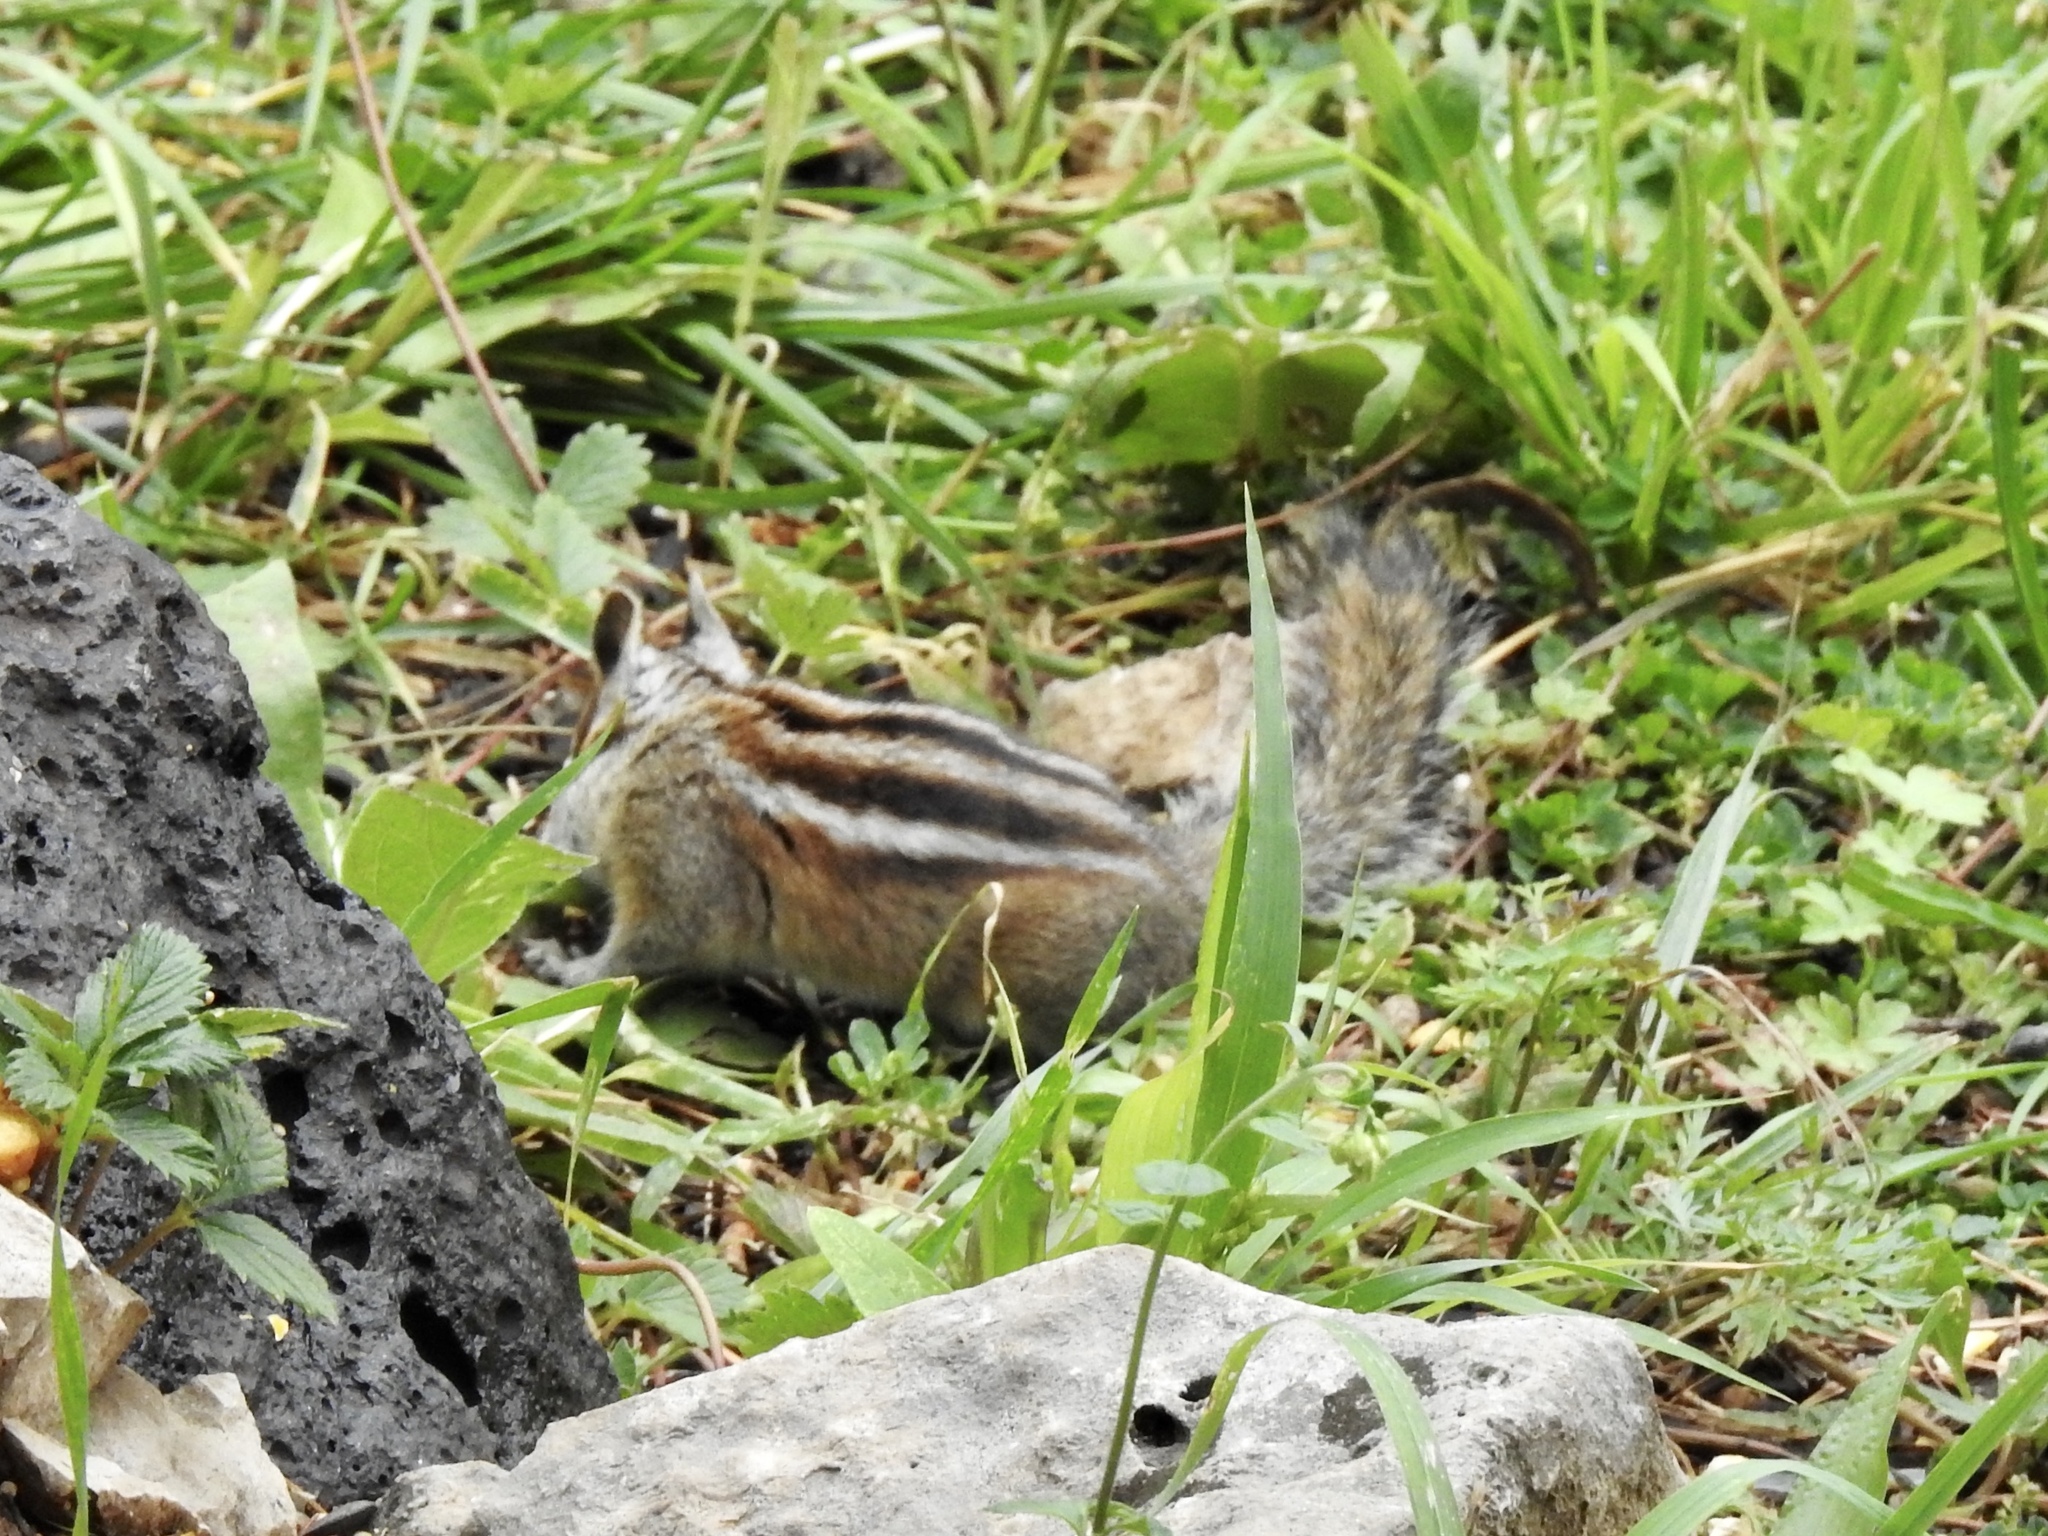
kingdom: Animalia
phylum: Chordata
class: Mammalia
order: Rodentia
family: Sciuridae
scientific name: Sciuridae
